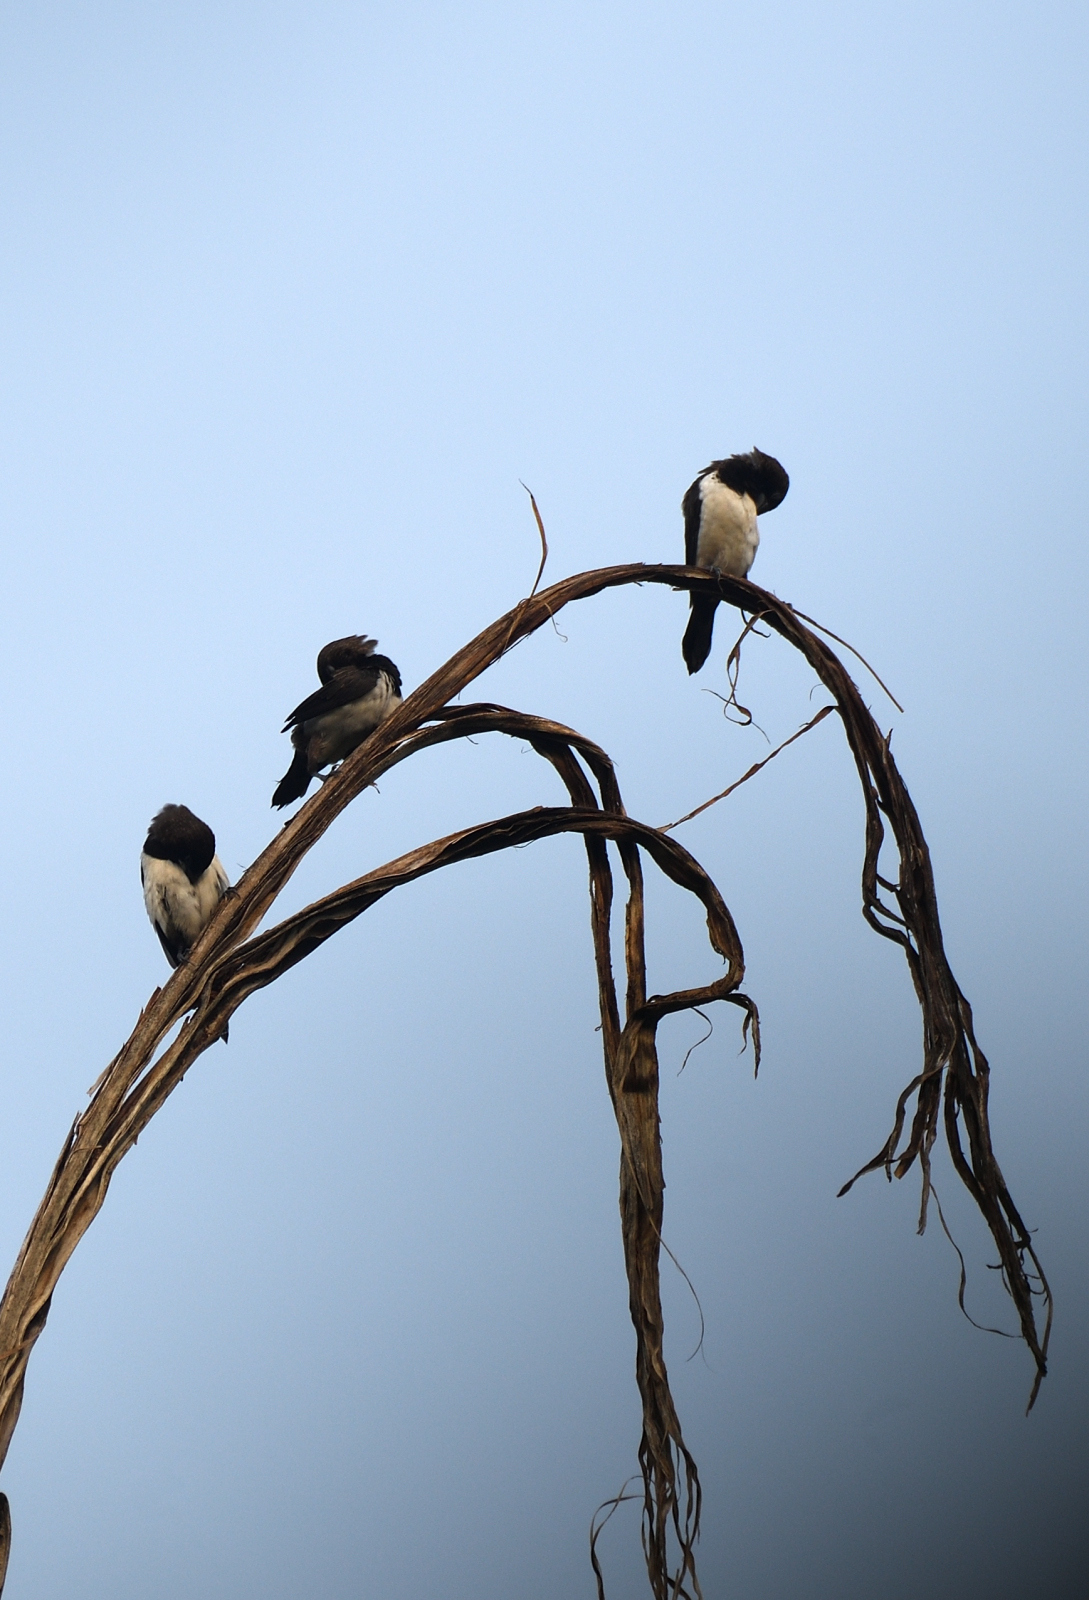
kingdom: Animalia
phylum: Chordata
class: Aves
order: Passeriformes
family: Estrildidae
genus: Lonchura
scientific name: Lonchura striata
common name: White-rumped munia
